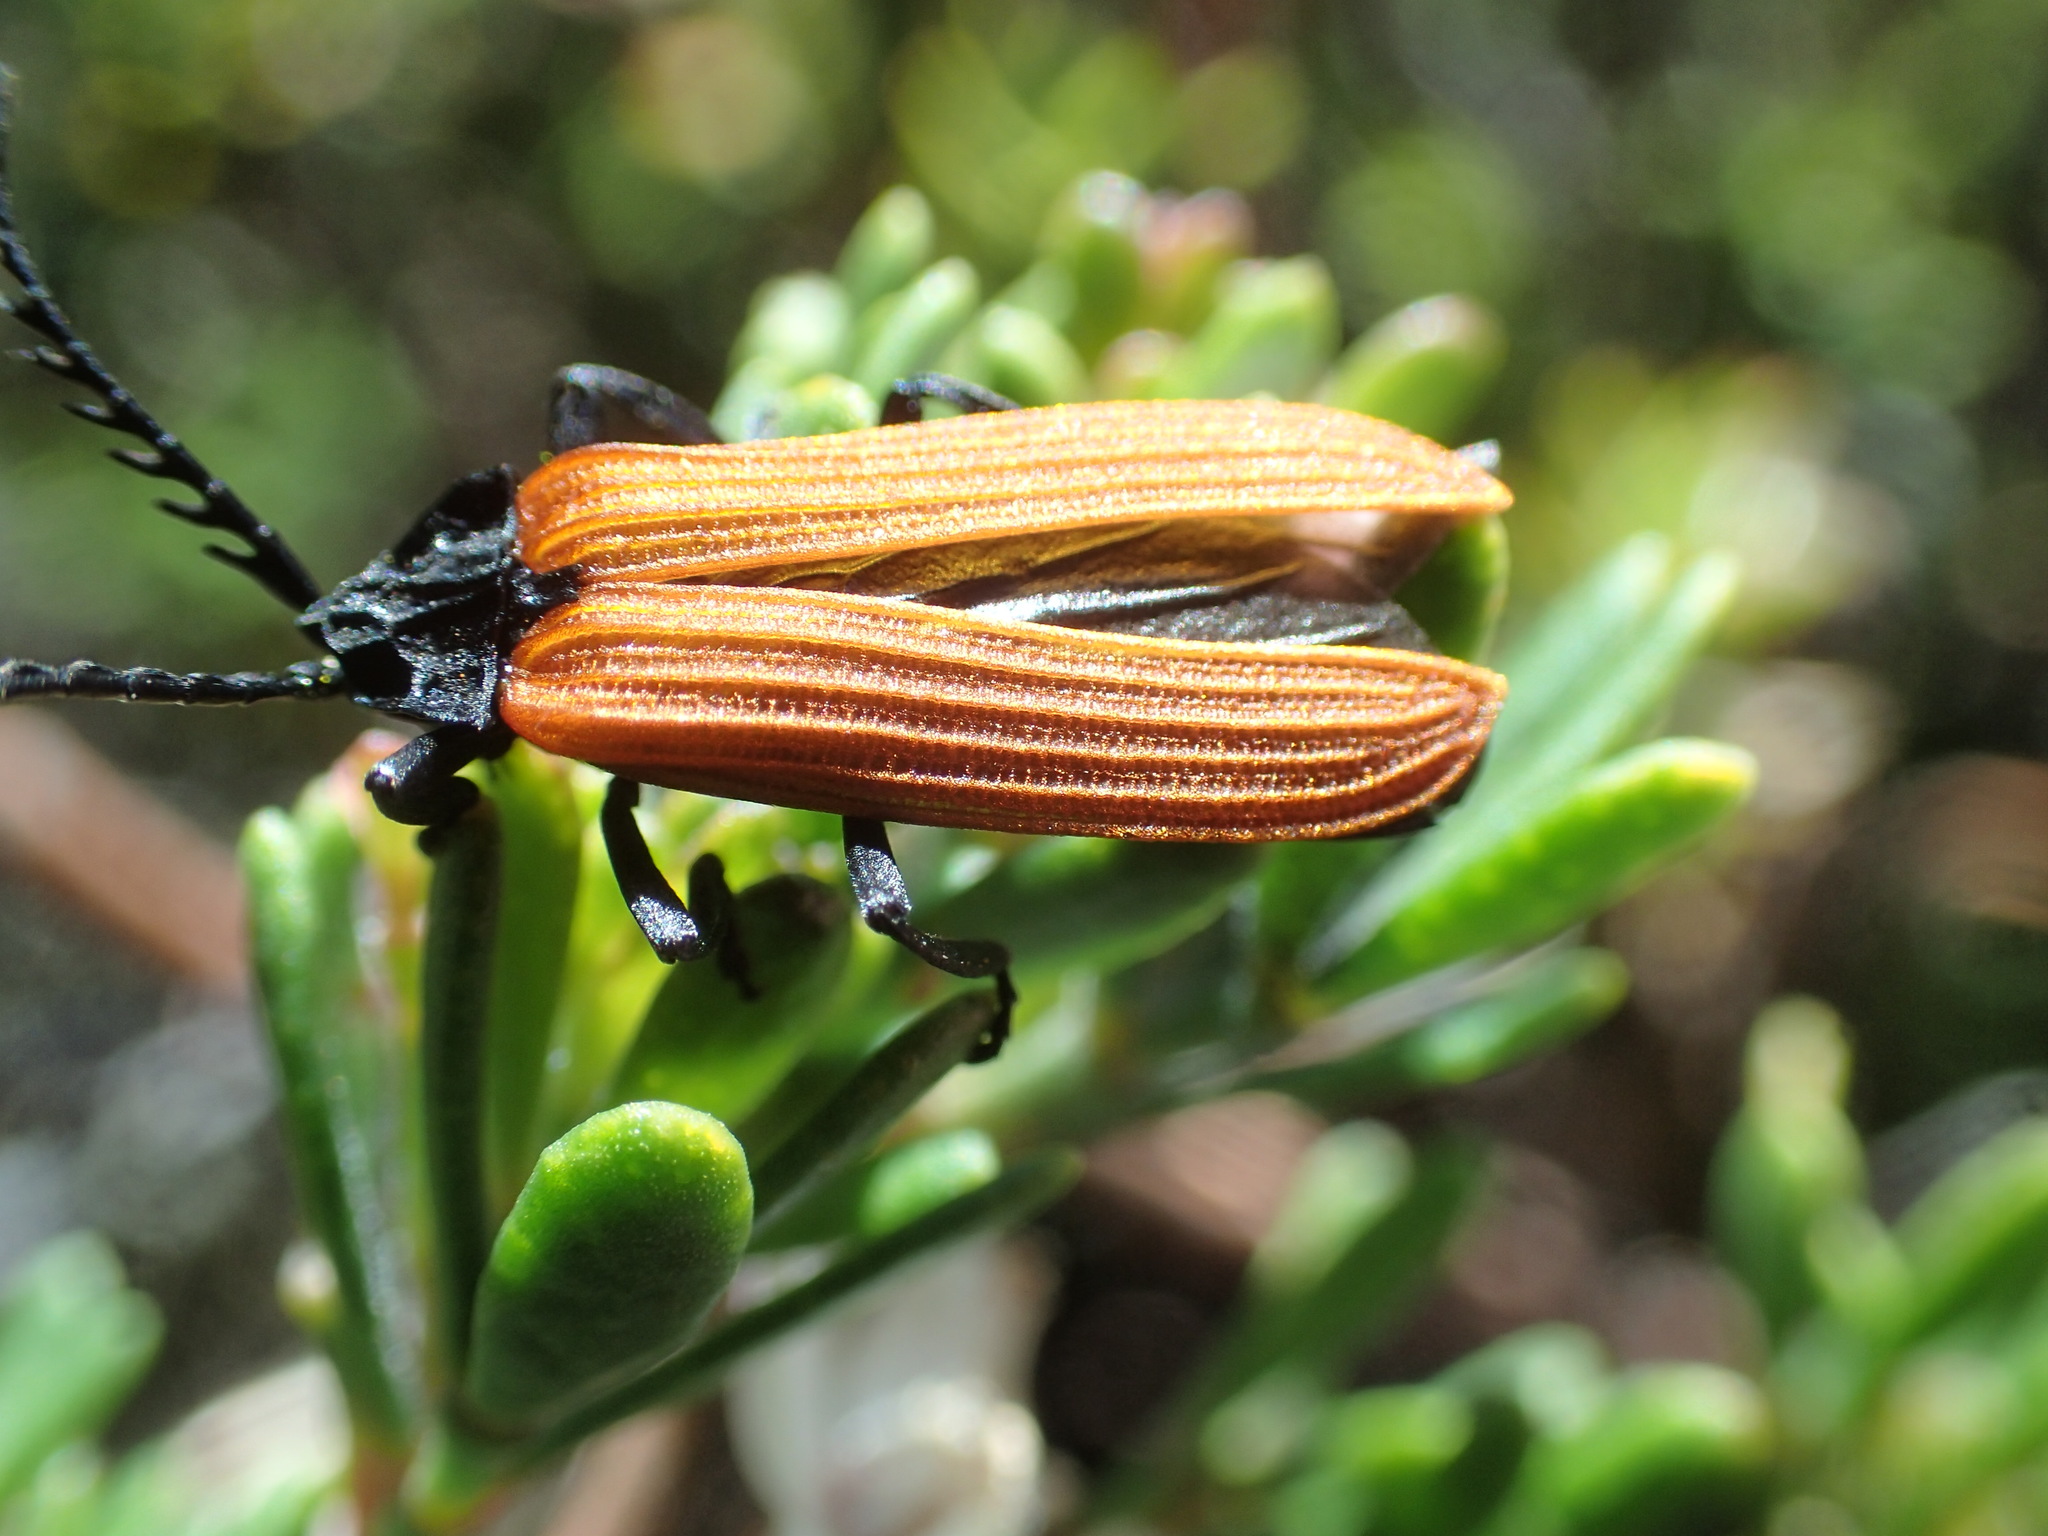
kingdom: Animalia
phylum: Arthropoda
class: Insecta
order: Coleoptera
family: Lycidae
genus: Porrostoma
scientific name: Porrostoma rhipidium
